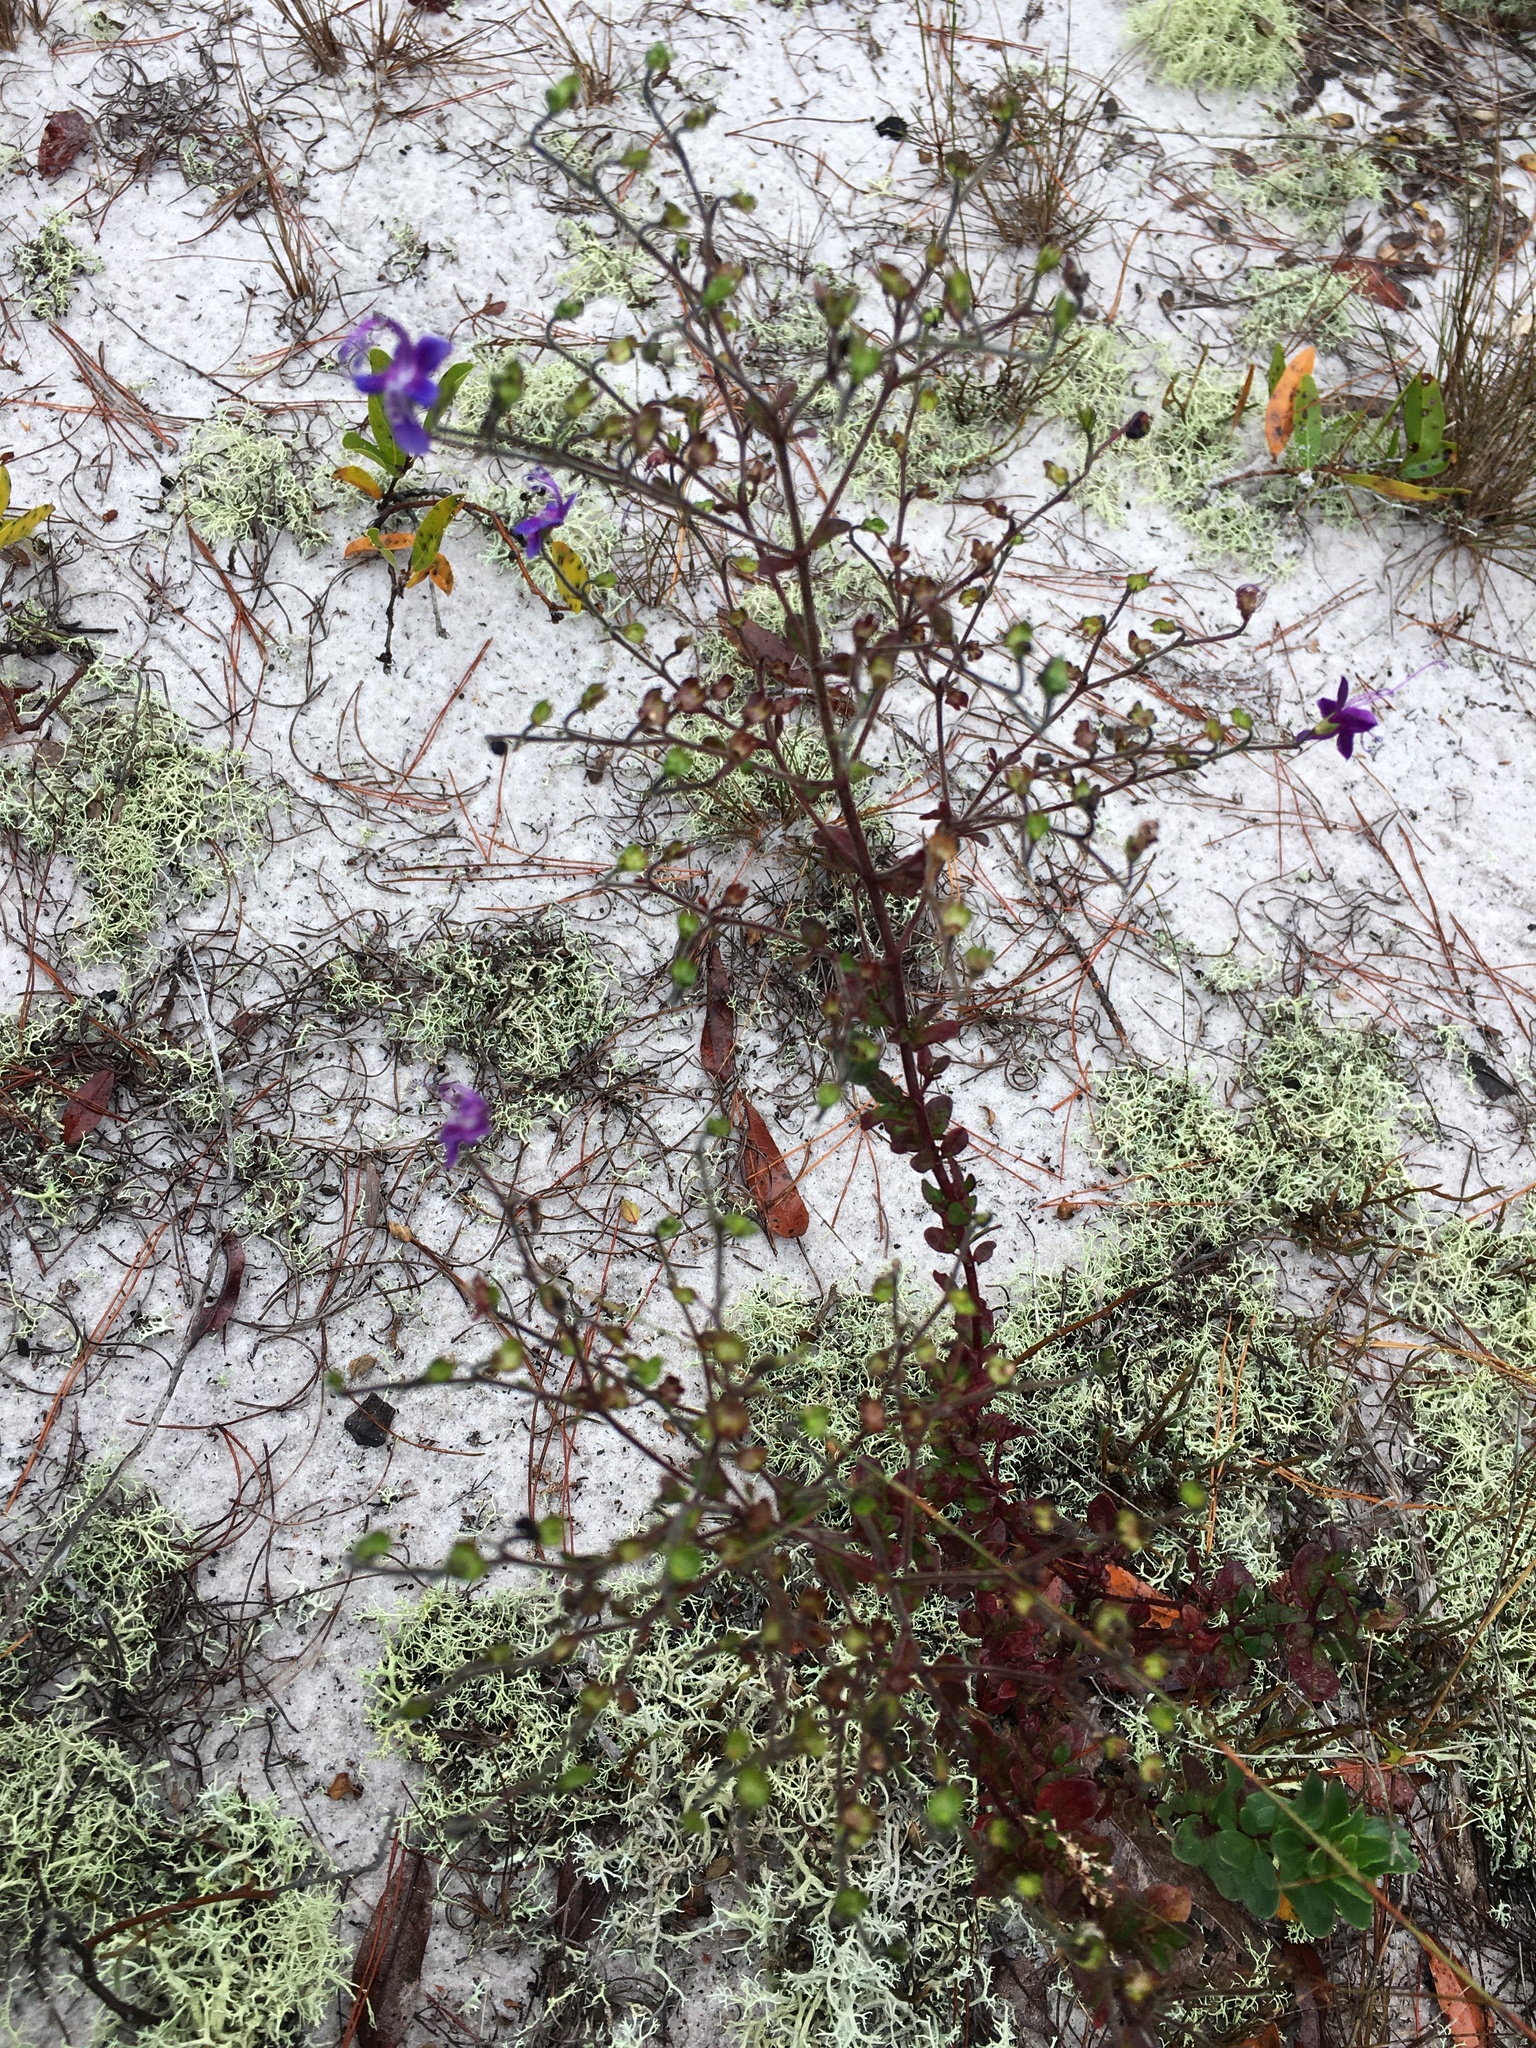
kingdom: Plantae
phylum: Tracheophyta
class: Magnoliopsida
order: Lamiales
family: Lamiaceae
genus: Trichostema
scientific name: Trichostema bridgesii-orzellii
